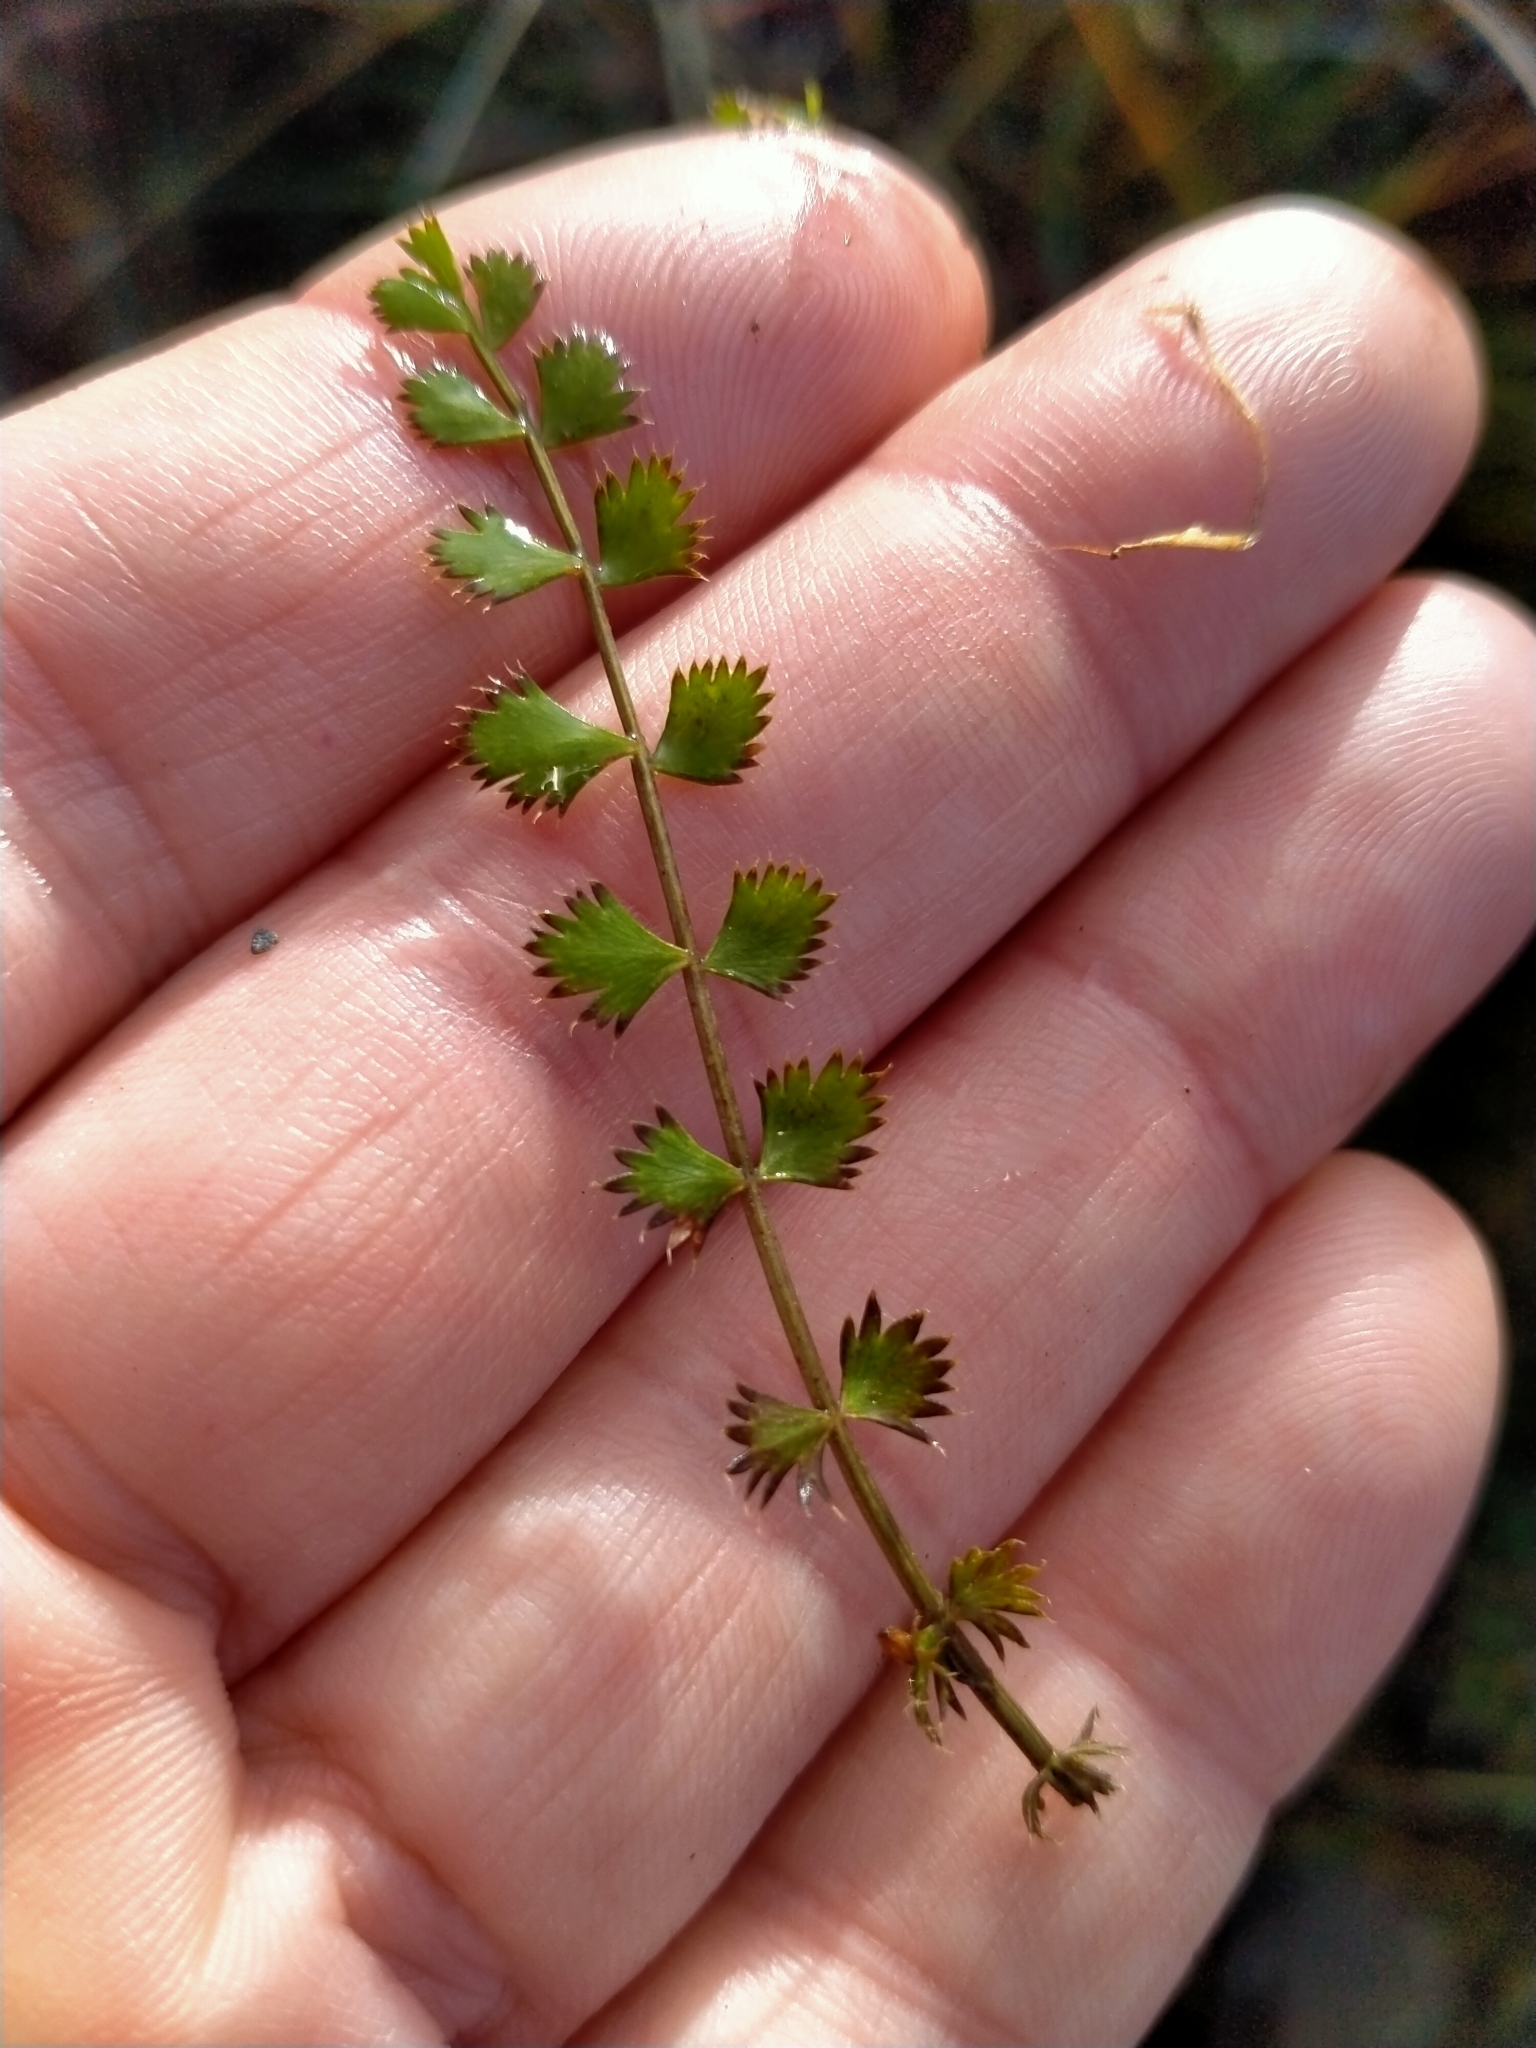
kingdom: Plantae
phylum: Tracheophyta
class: Magnoliopsida
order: Apiales
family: Apiaceae
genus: Anisotome
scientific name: Anisotome aromatica
